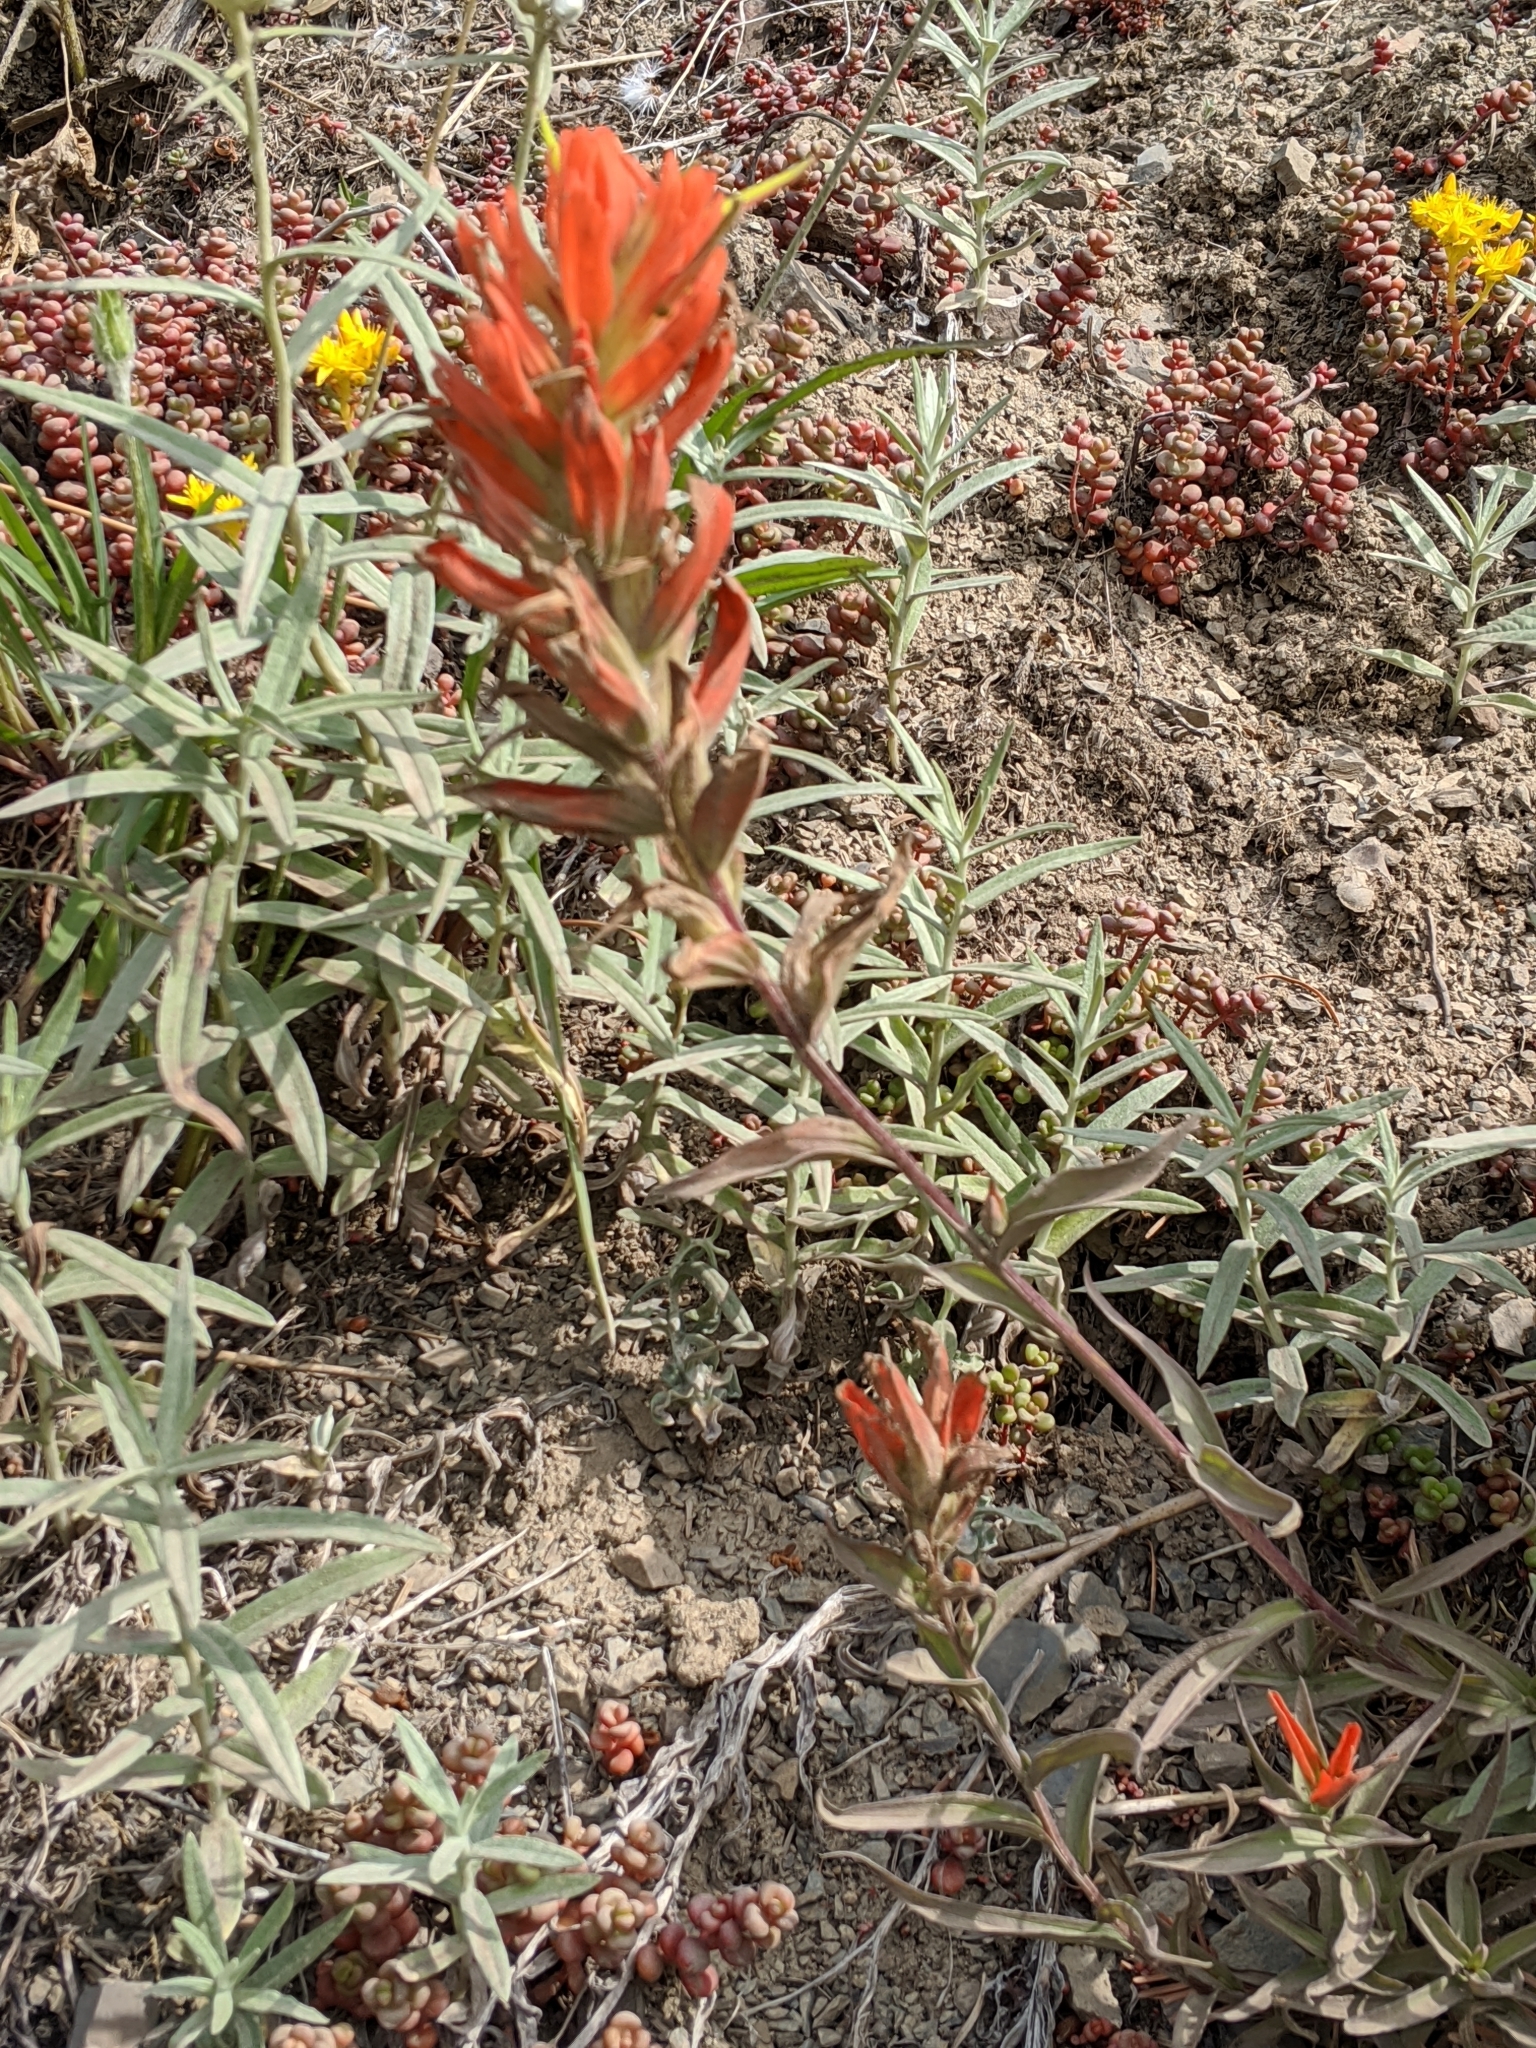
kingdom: Plantae
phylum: Tracheophyta
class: Magnoliopsida
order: Lamiales
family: Orobanchaceae
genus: Castilleja
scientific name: Castilleja miniata
